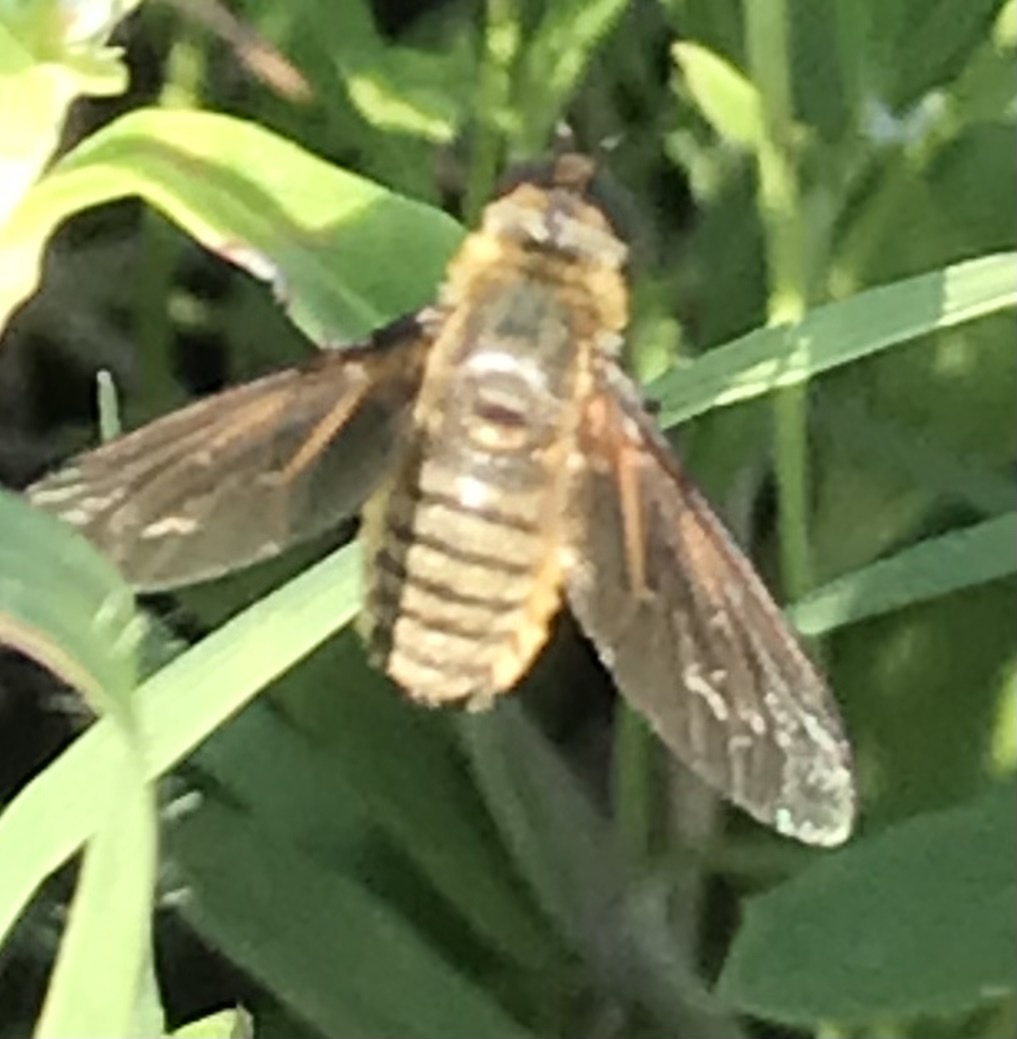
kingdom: Animalia
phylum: Arthropoda
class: Insecta
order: Diptera
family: Bombyliidae
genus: Poecilanthrax
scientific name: Poecilanthrax lucifer
